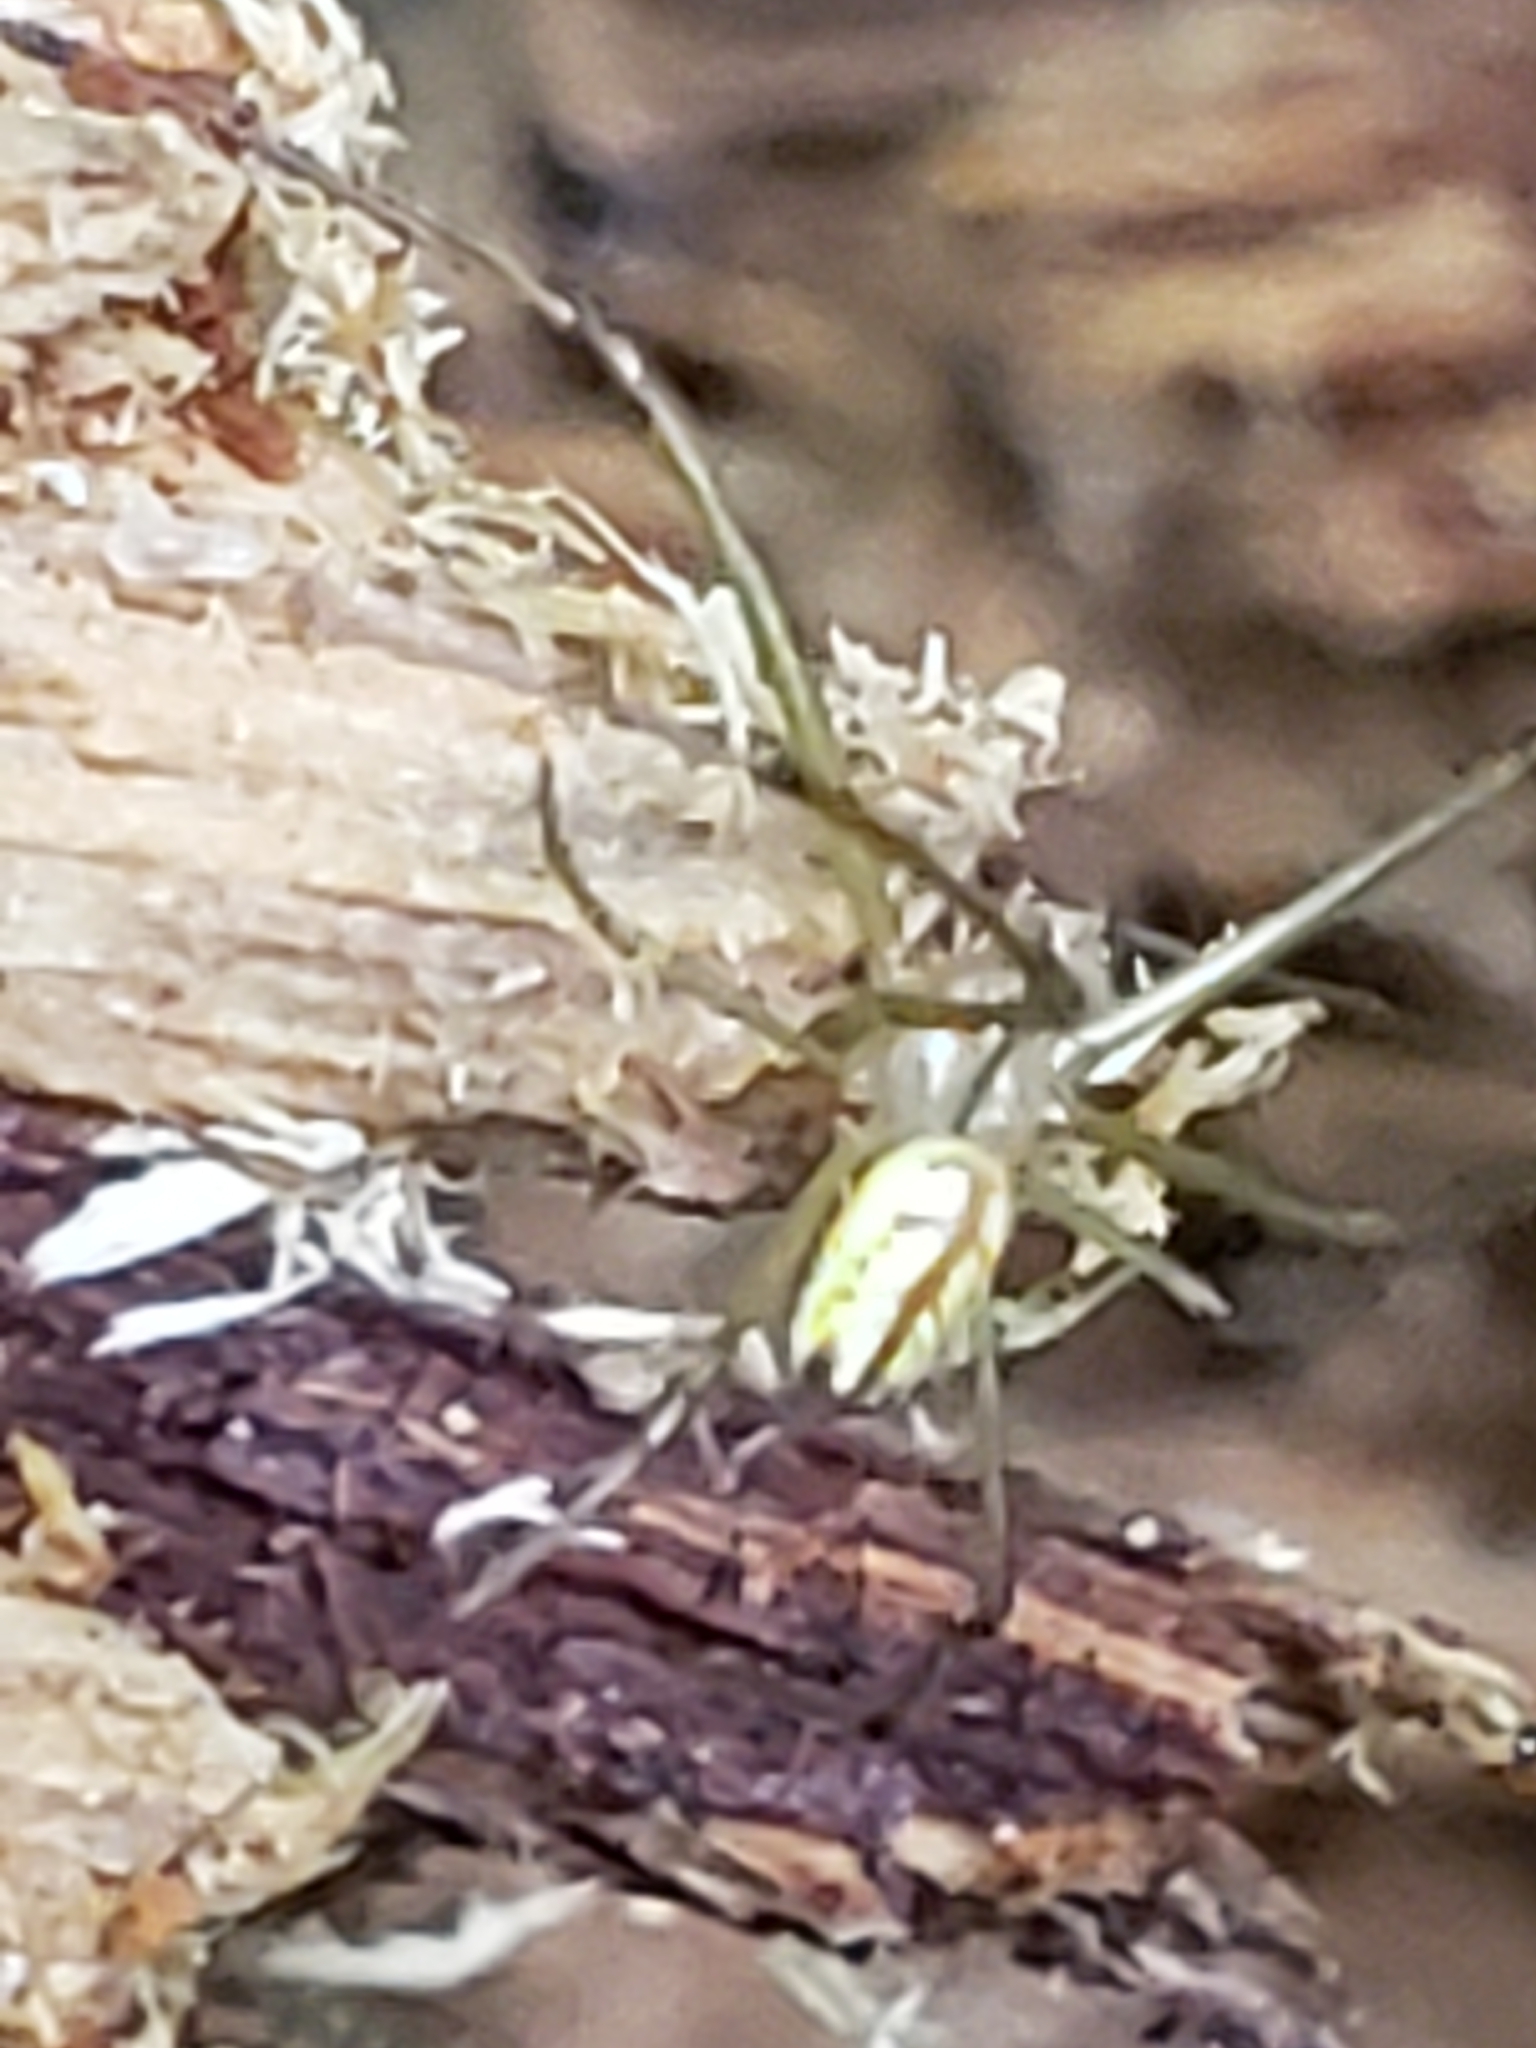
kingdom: Animalia
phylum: Arthropoda
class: Arachnida
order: Araneae
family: Tetragnathidae
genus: Leucauge
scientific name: Leucauge venusta
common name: Longjawed orb weavers
